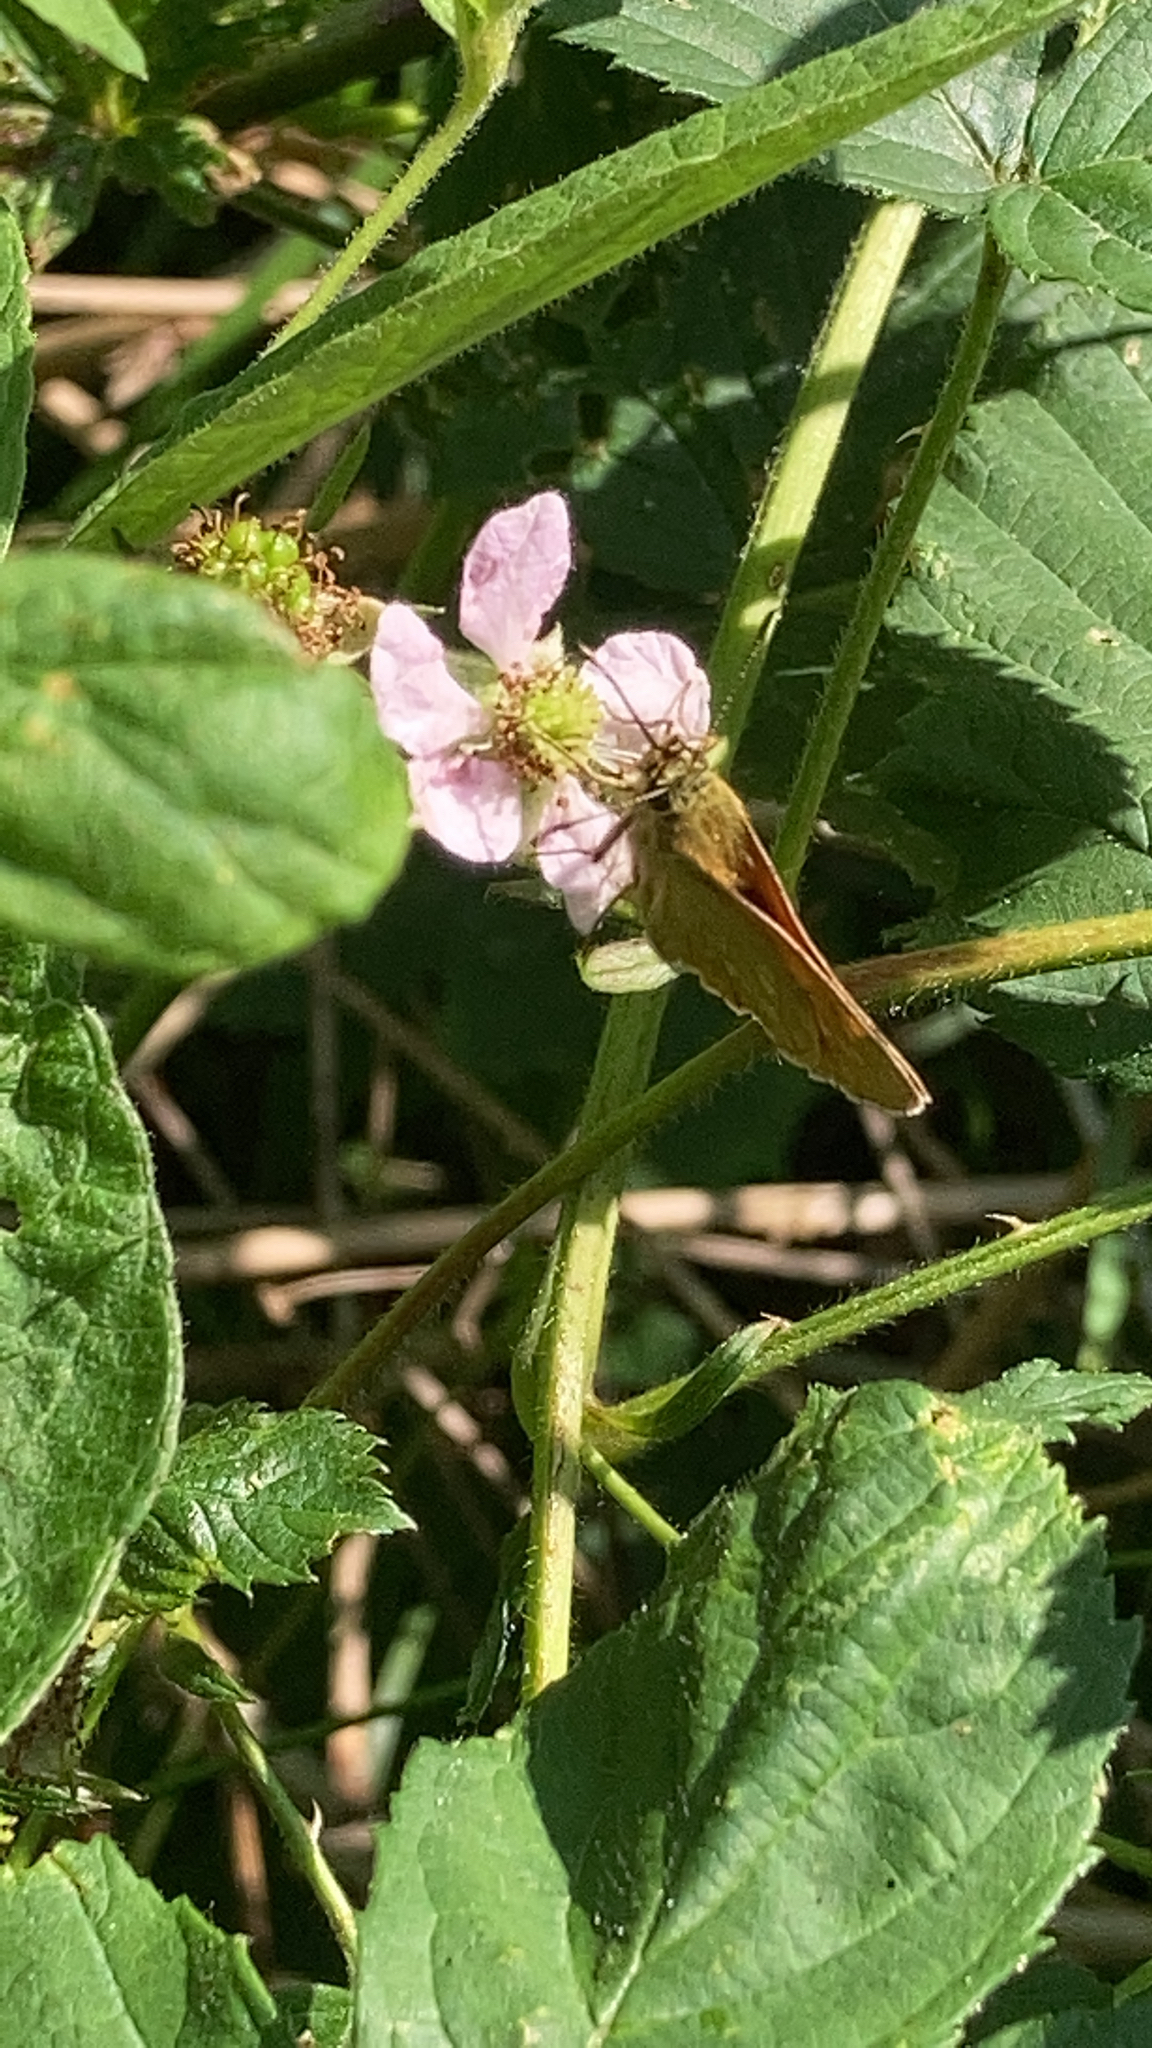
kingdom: Animalia
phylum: Arthropoda
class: Insecta
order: Lepidoptera
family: Hesperiidae
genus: Ochlodes
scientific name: Ochlodes venata
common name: Large skipper
